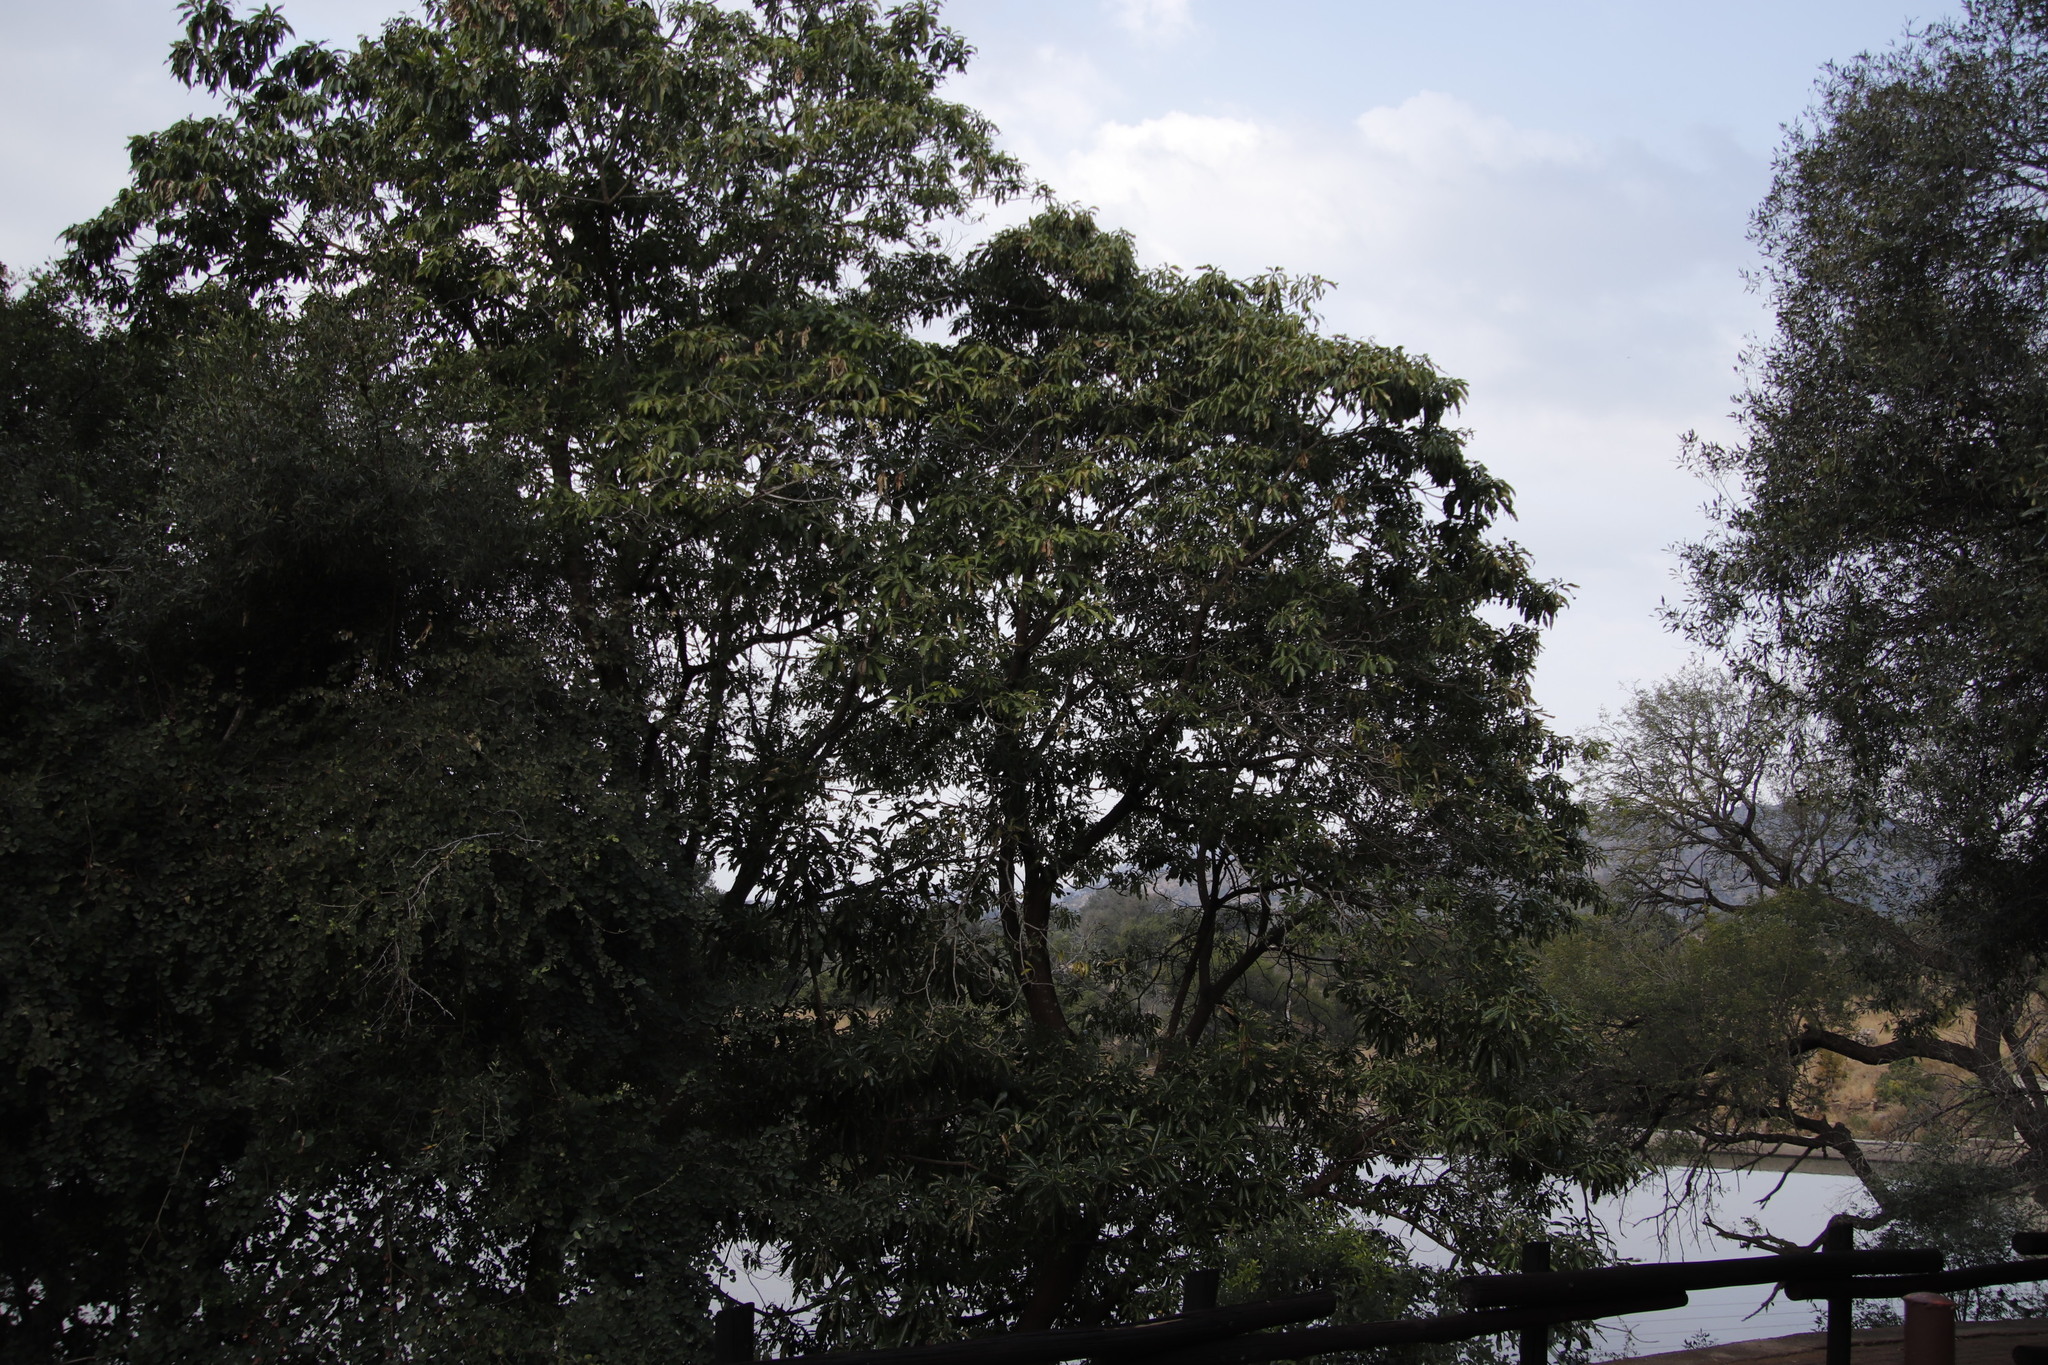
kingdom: Plantae
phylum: Tracheophyta
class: Magnoliopsida
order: Gentianales
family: Apocynaceae
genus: Rauvolfia
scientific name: Rauvolfia caffra
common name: Quininetree
